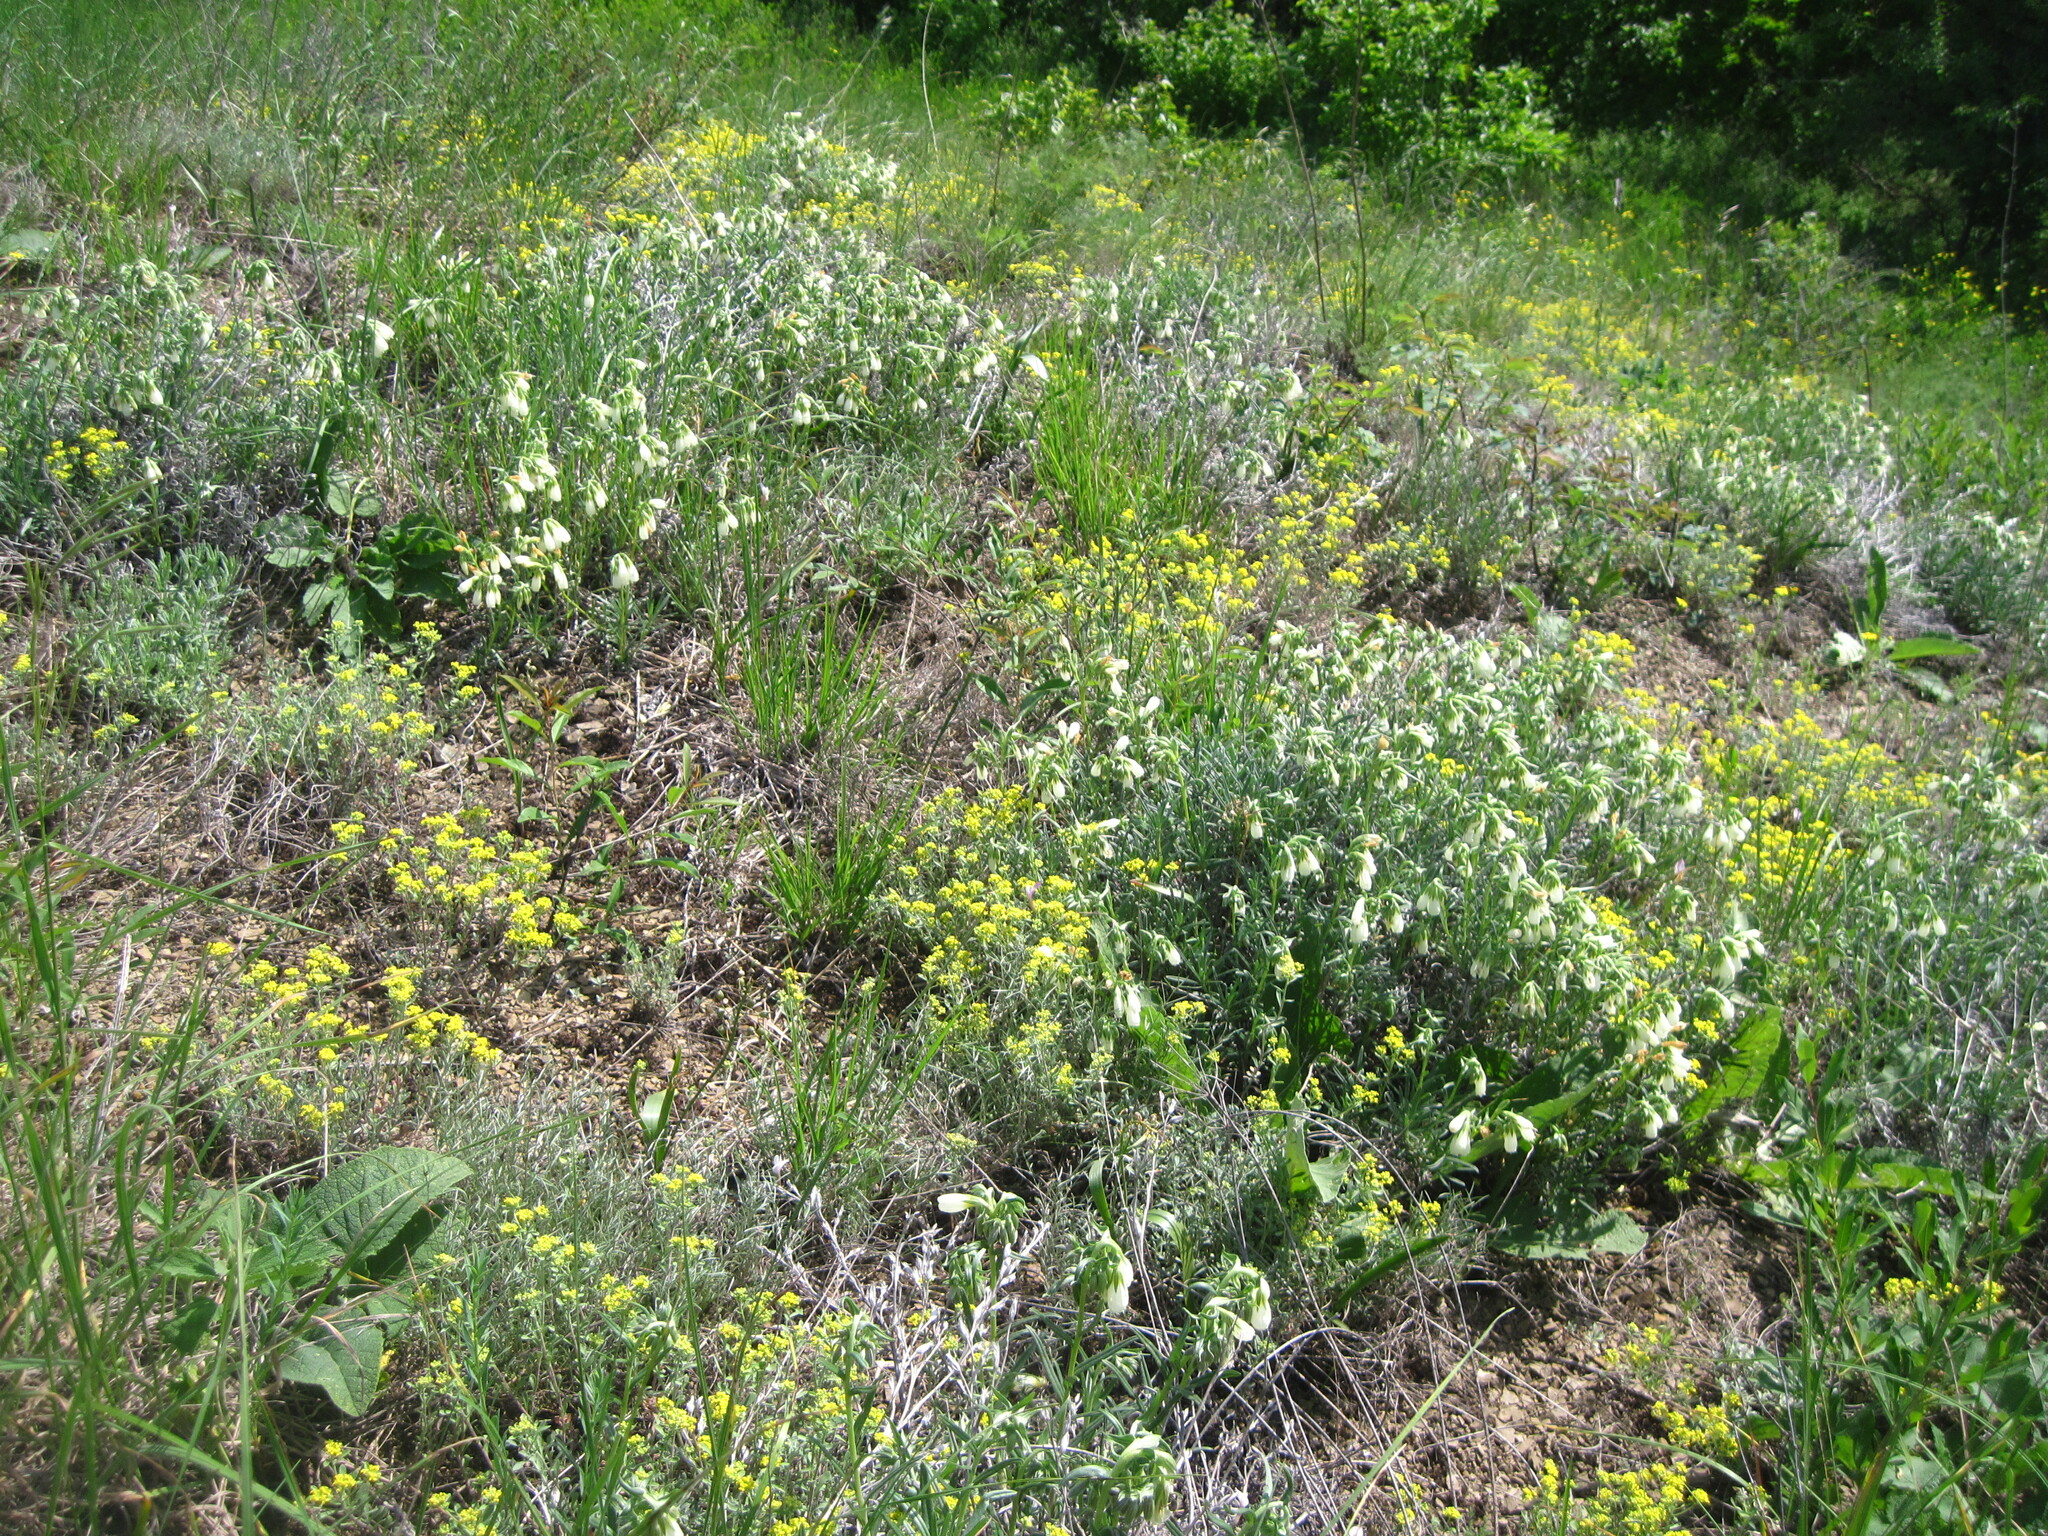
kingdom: Plantae
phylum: Tracheophyta
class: Magnoliopsida
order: Boraginales
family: Boraginaceae
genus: Onosma
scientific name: Onosma simplicissima
